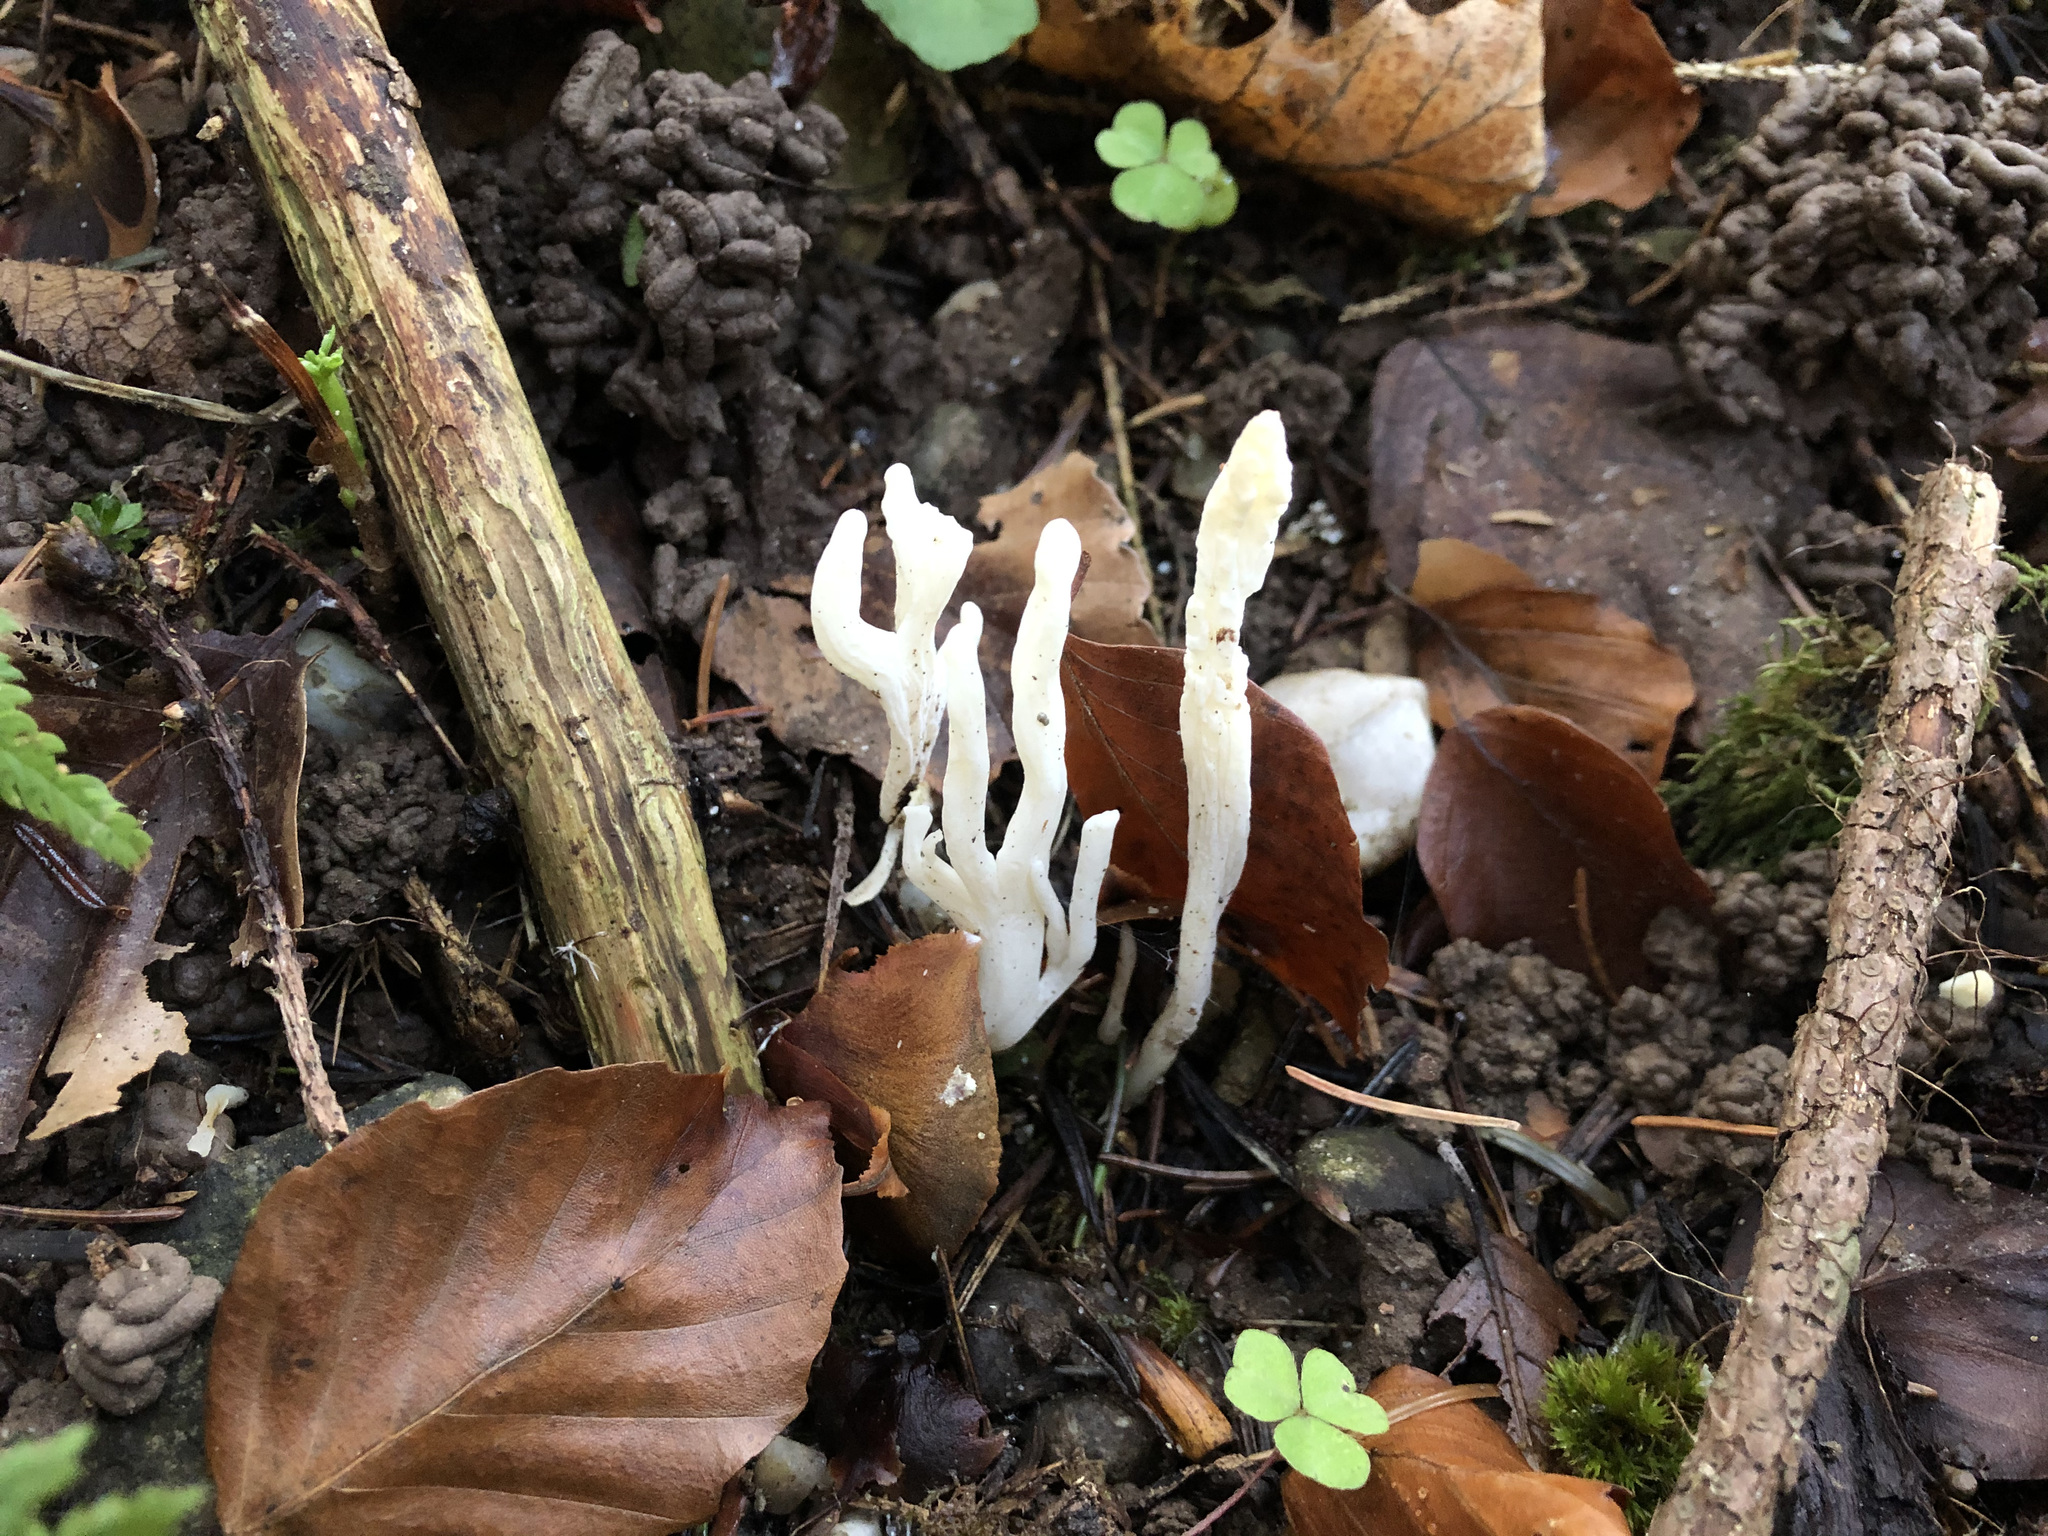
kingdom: Fungi
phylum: Basidiomycota
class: Agaricomycetes
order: Cantharellales
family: Hydnaceae
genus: Clavulina
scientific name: Clavulina rugosa
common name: Wrinkled club
